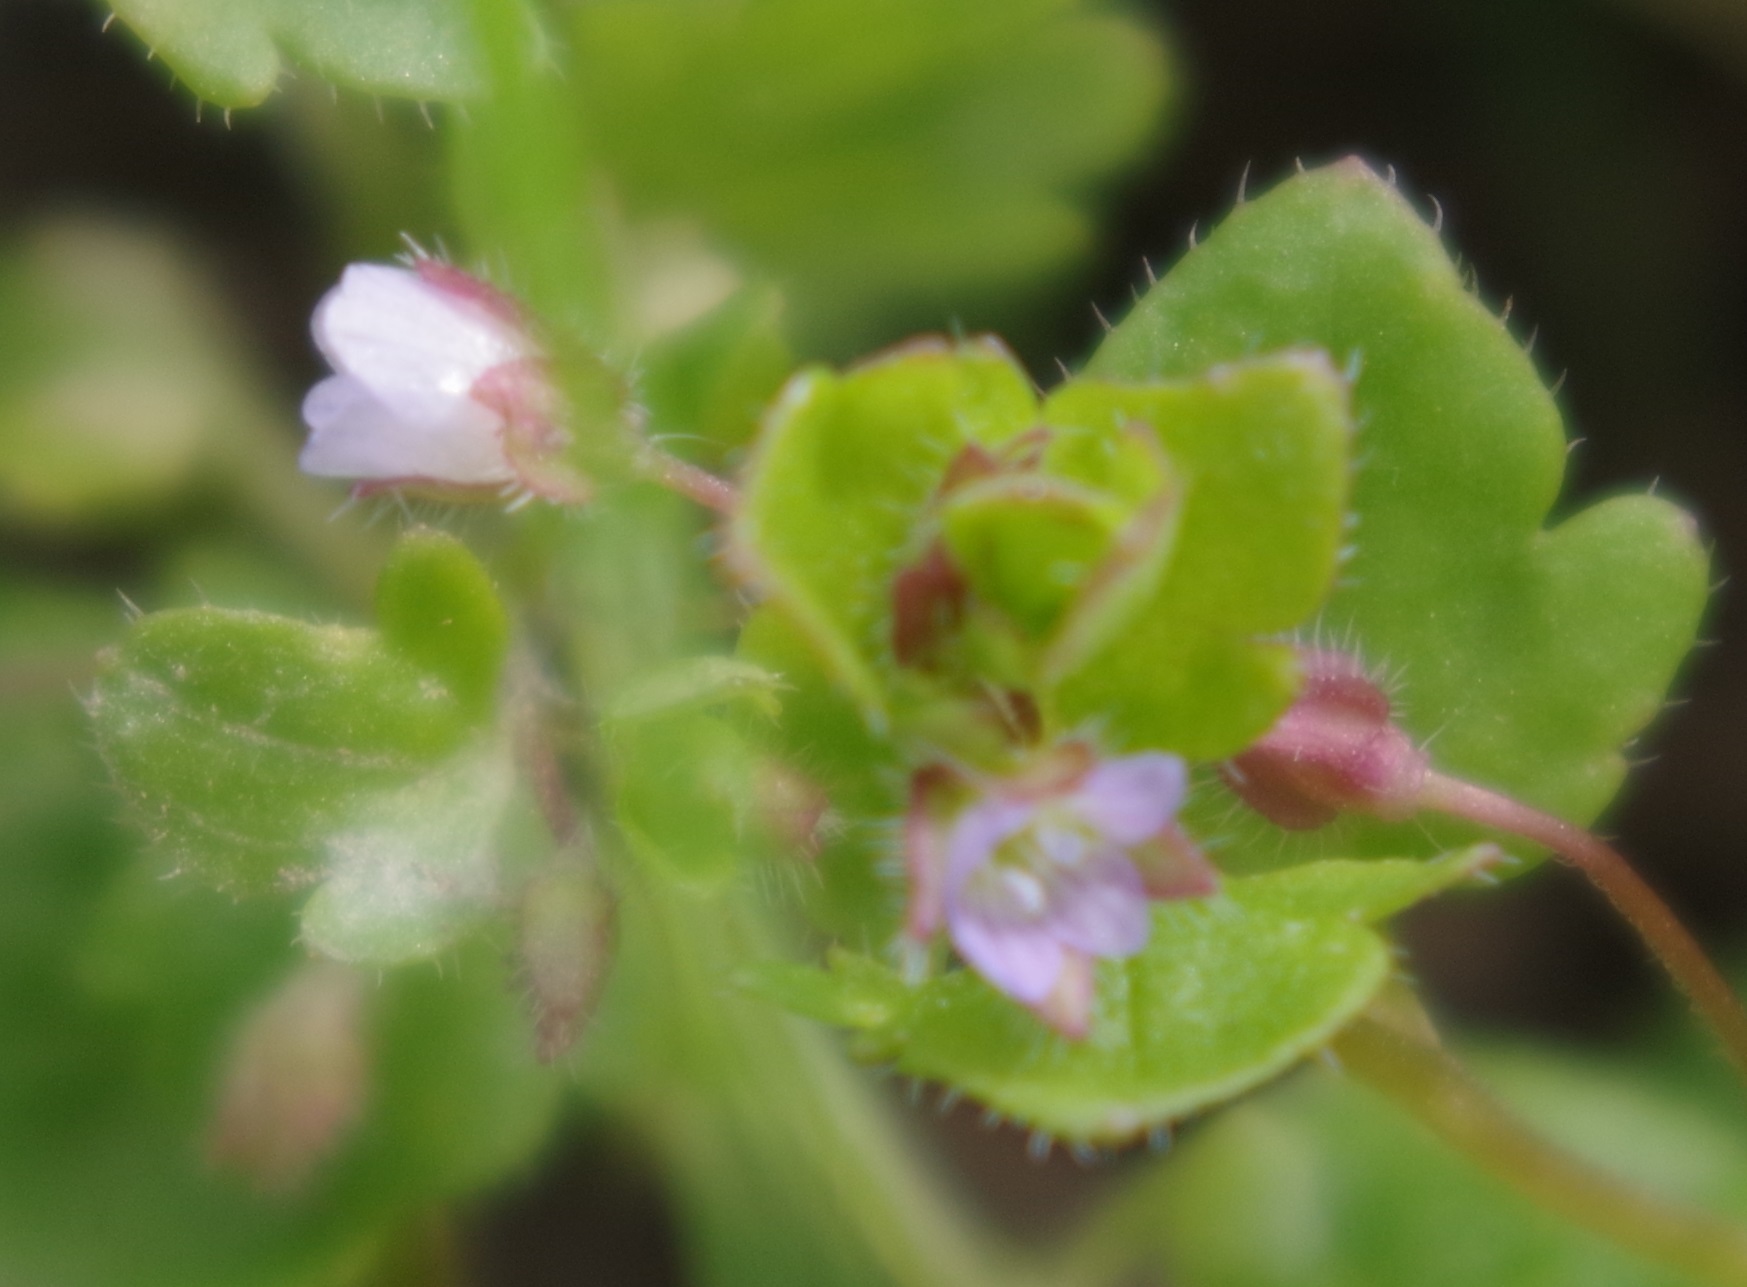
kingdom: Plantae
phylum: Tracheophyta
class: Magnoliopsida
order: Lamiales
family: Plantaginaceae
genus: Veronica
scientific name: Veronica sublobata
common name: False ivy-leaved speedwell
